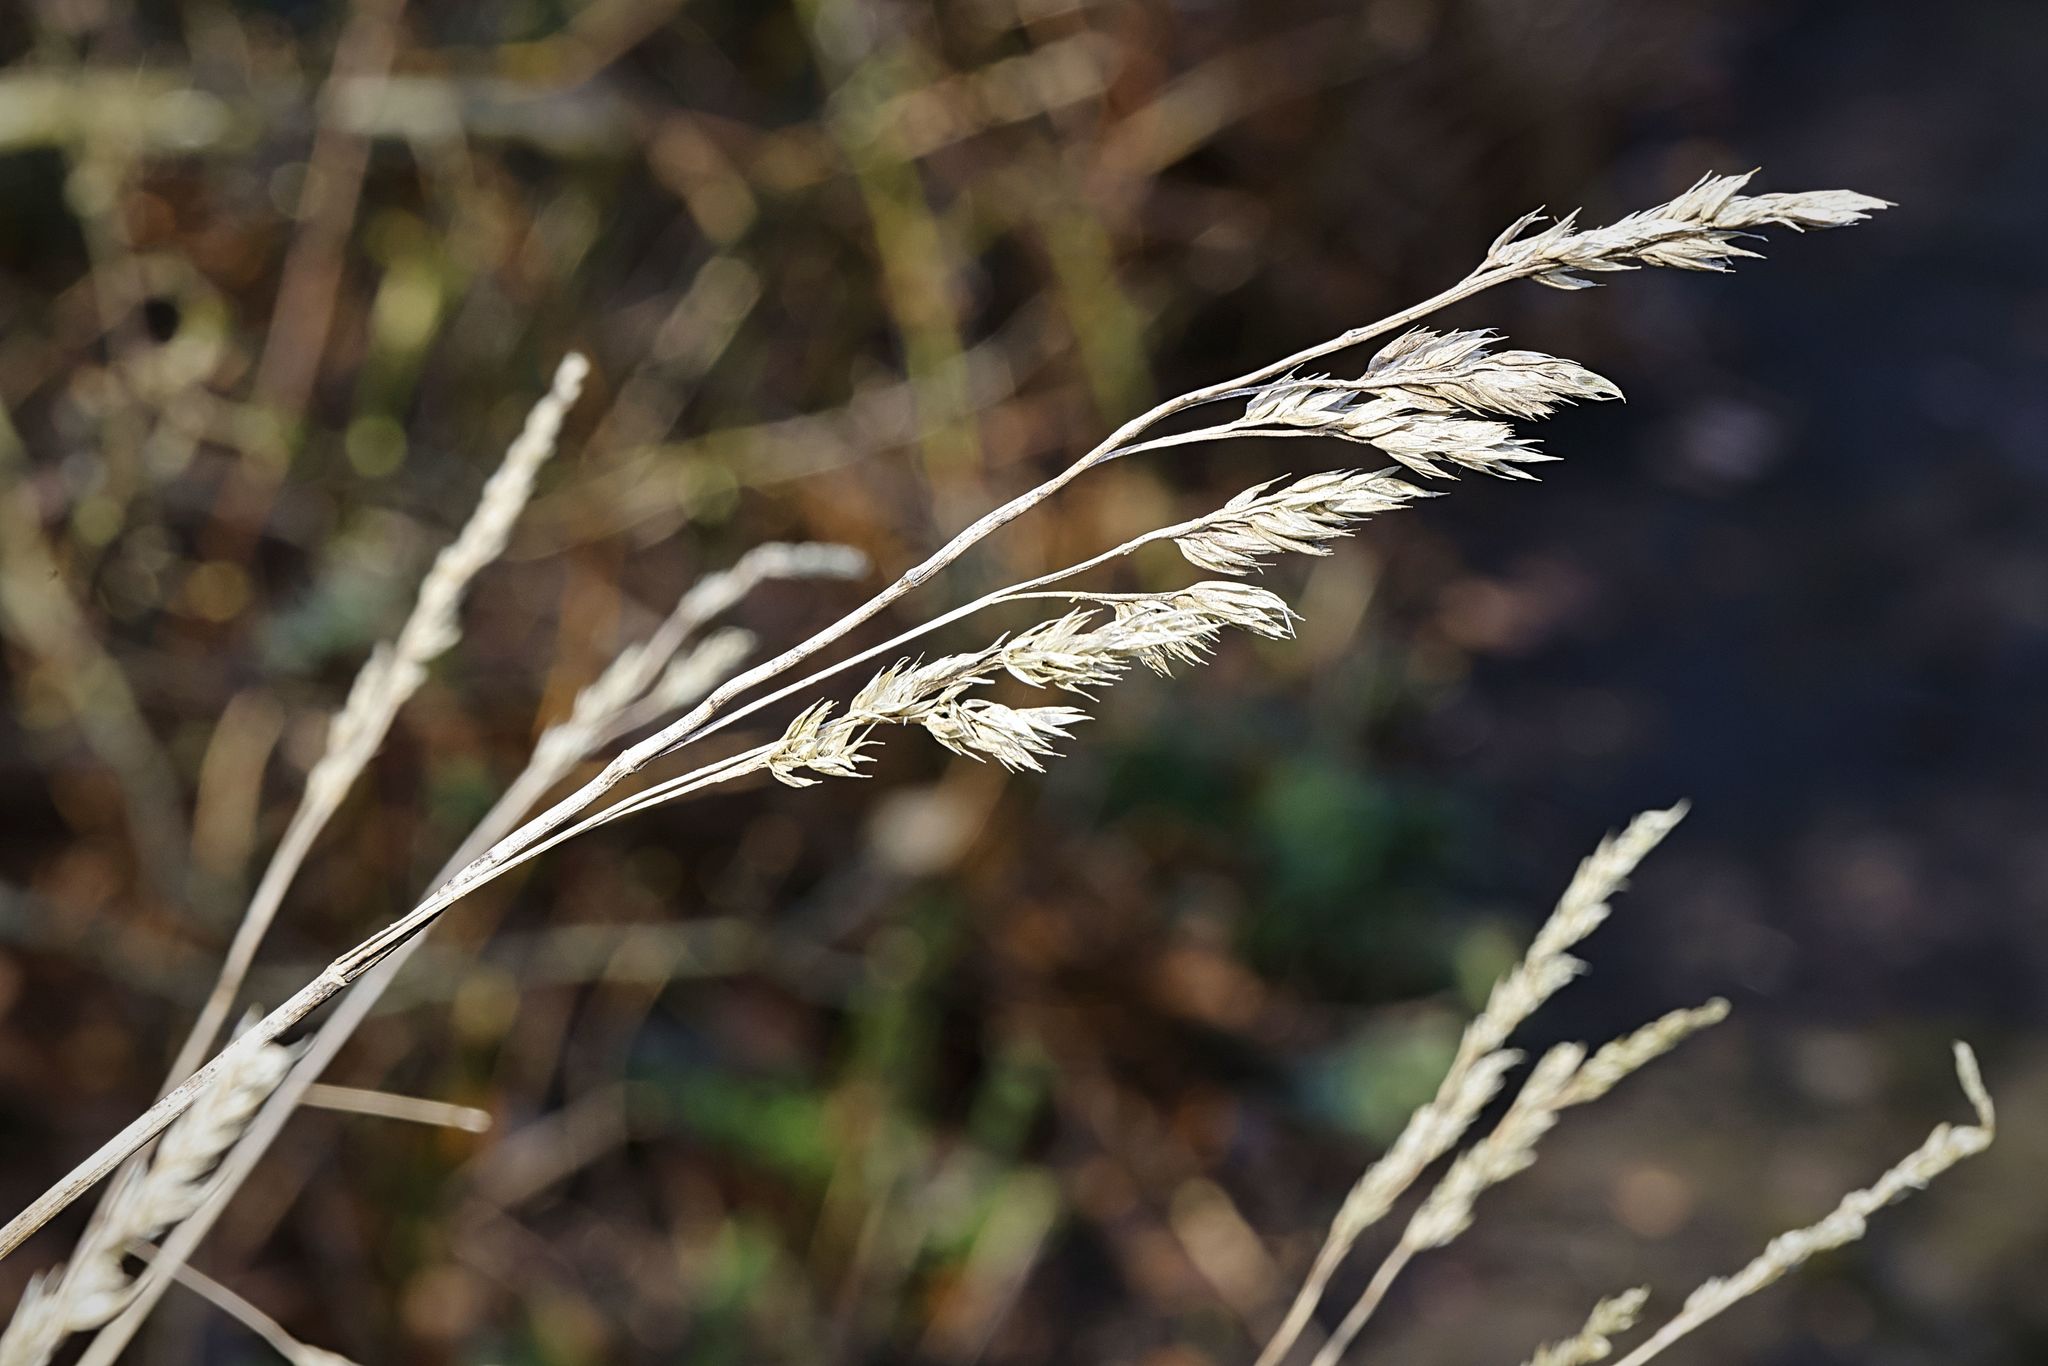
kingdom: Plantae
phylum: Tracheophyta
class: Liliopsida
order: Poales
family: Poaceae
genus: Dactylis
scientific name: Dactylis glomerata
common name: Orchardgrass
